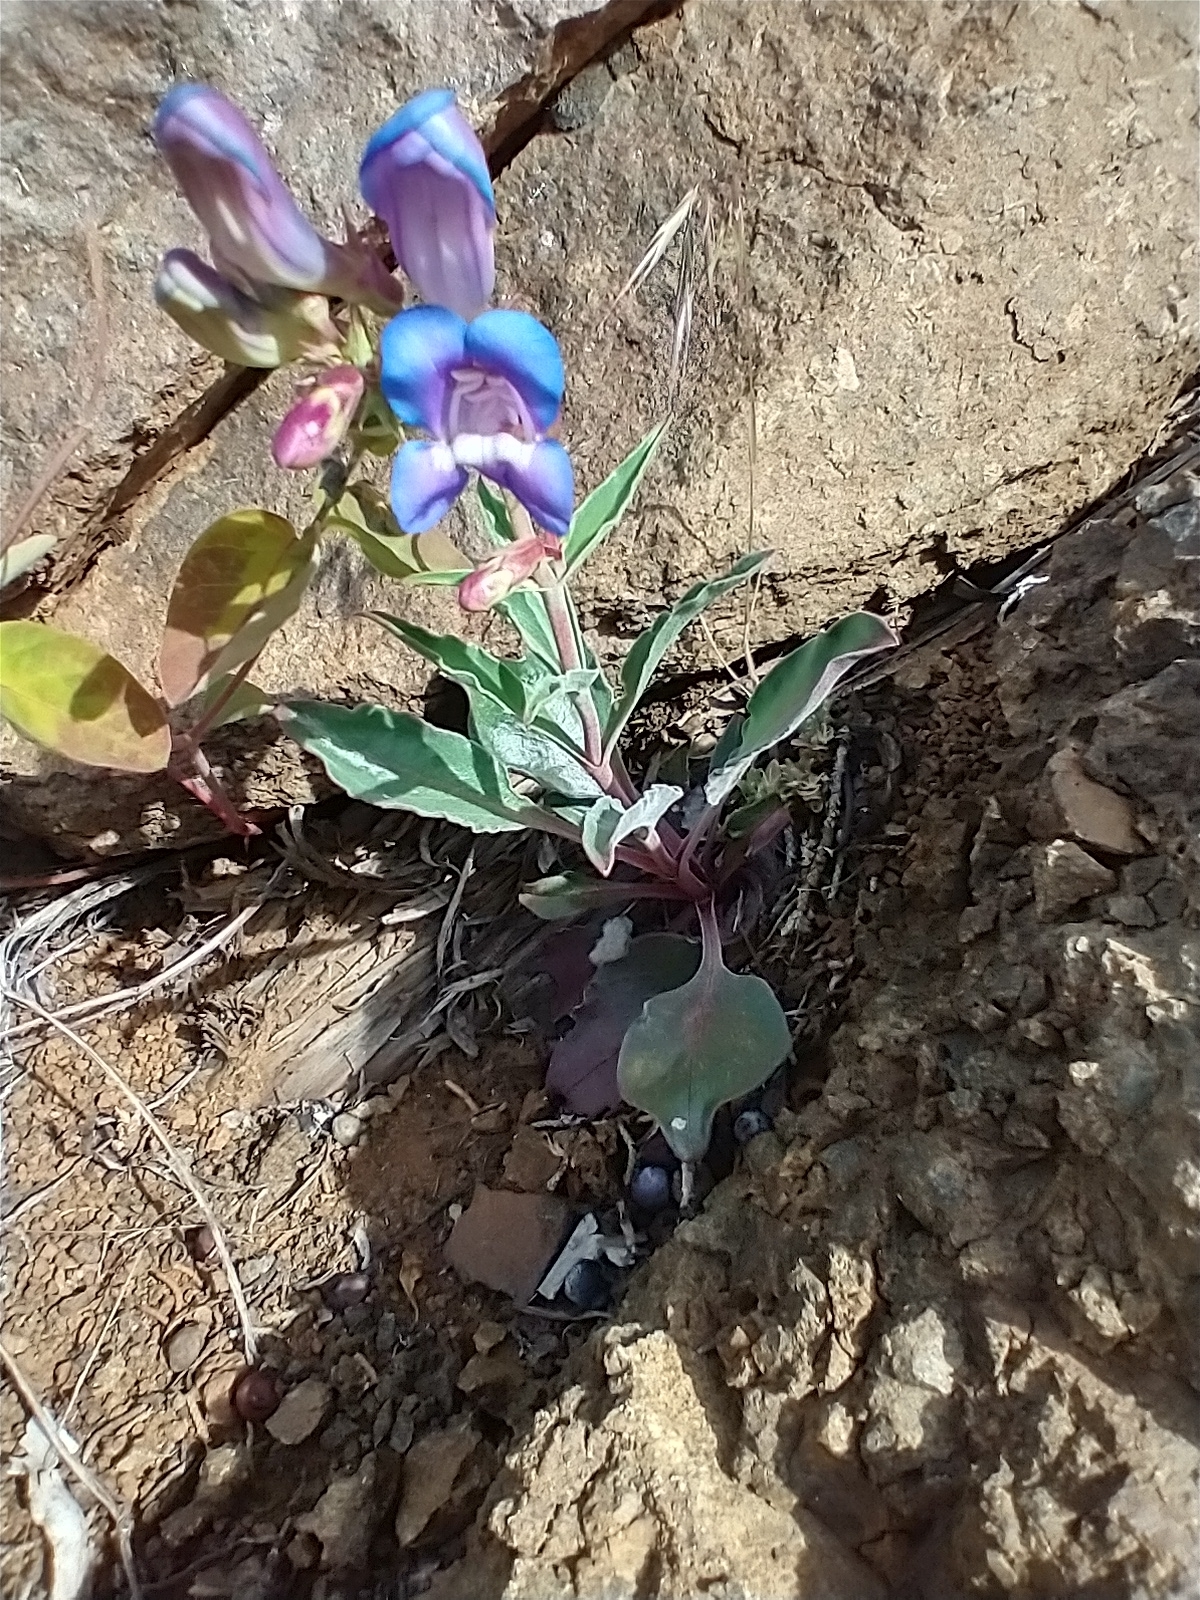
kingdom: Plantae
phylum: Tracheophyta
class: Magnoliopsida
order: Lamiales
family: Plantaginaceae
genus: Penstemon
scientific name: Penstemon speciosus
